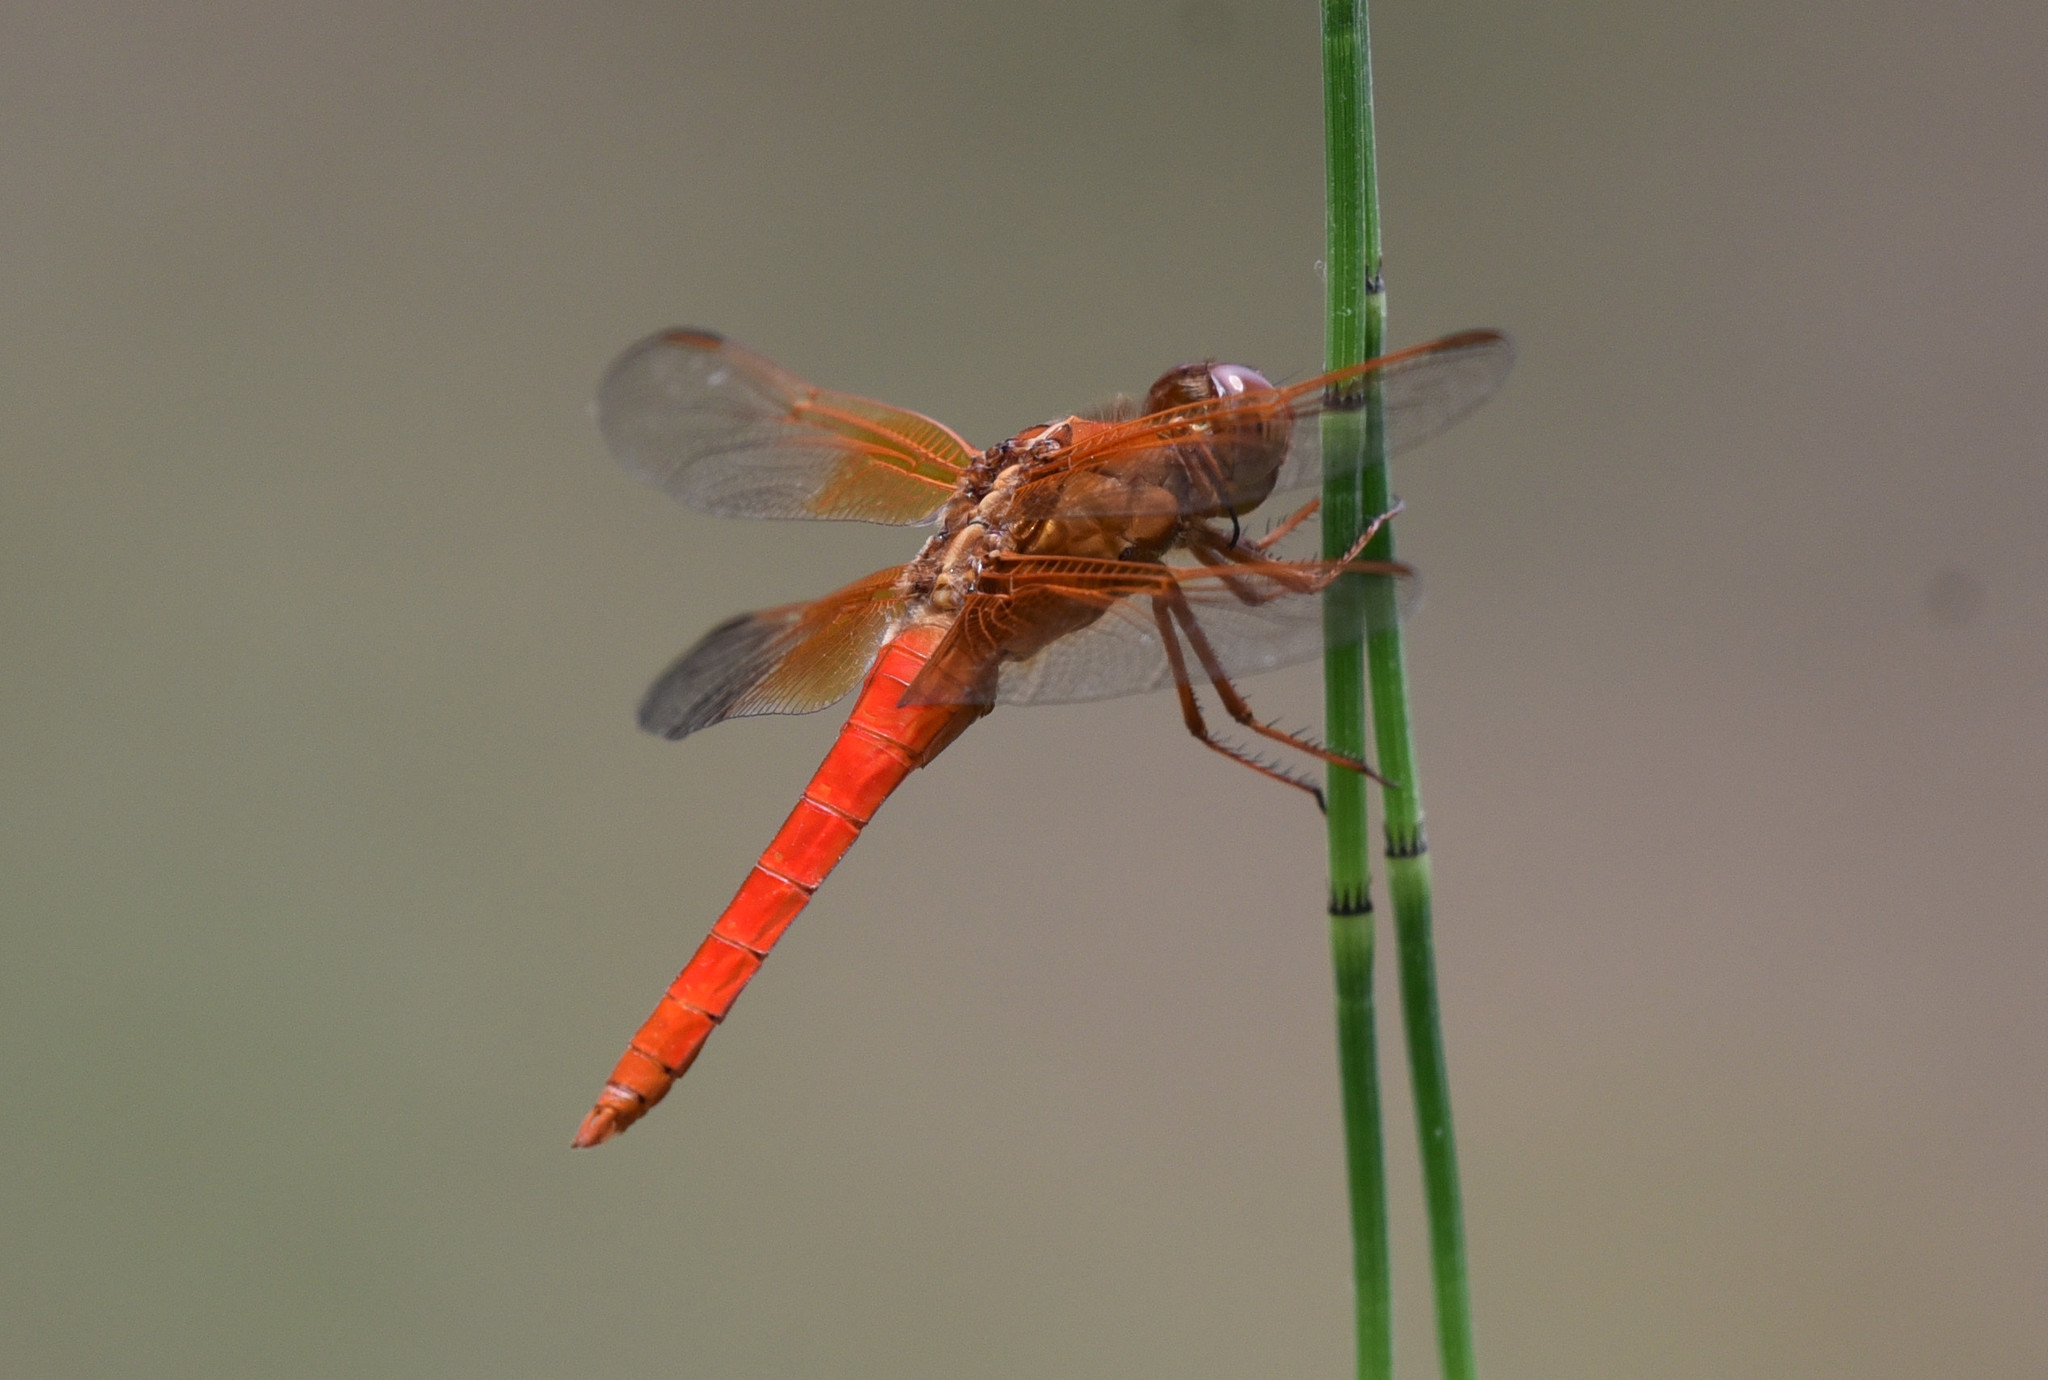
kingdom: Animalia
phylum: Arthropoda
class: Insecta
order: Odonata
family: Libellulidae
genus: Libellula
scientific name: Libellula croceipennis
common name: Neon skimmer
